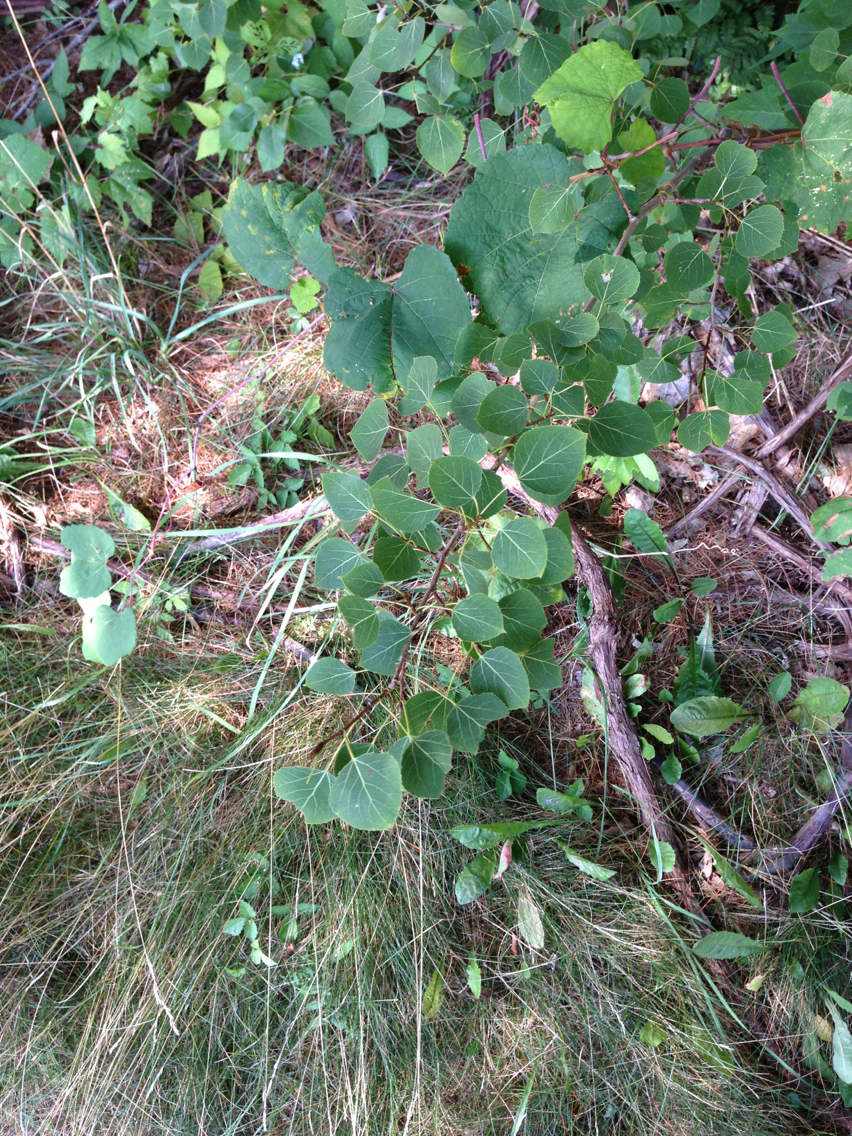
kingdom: Plantae
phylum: Tracheophyta
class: Magnoliopsida
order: Malpighiales
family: Salicaceae
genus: Populus
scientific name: Populus tremuloides
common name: Quaking aspen
